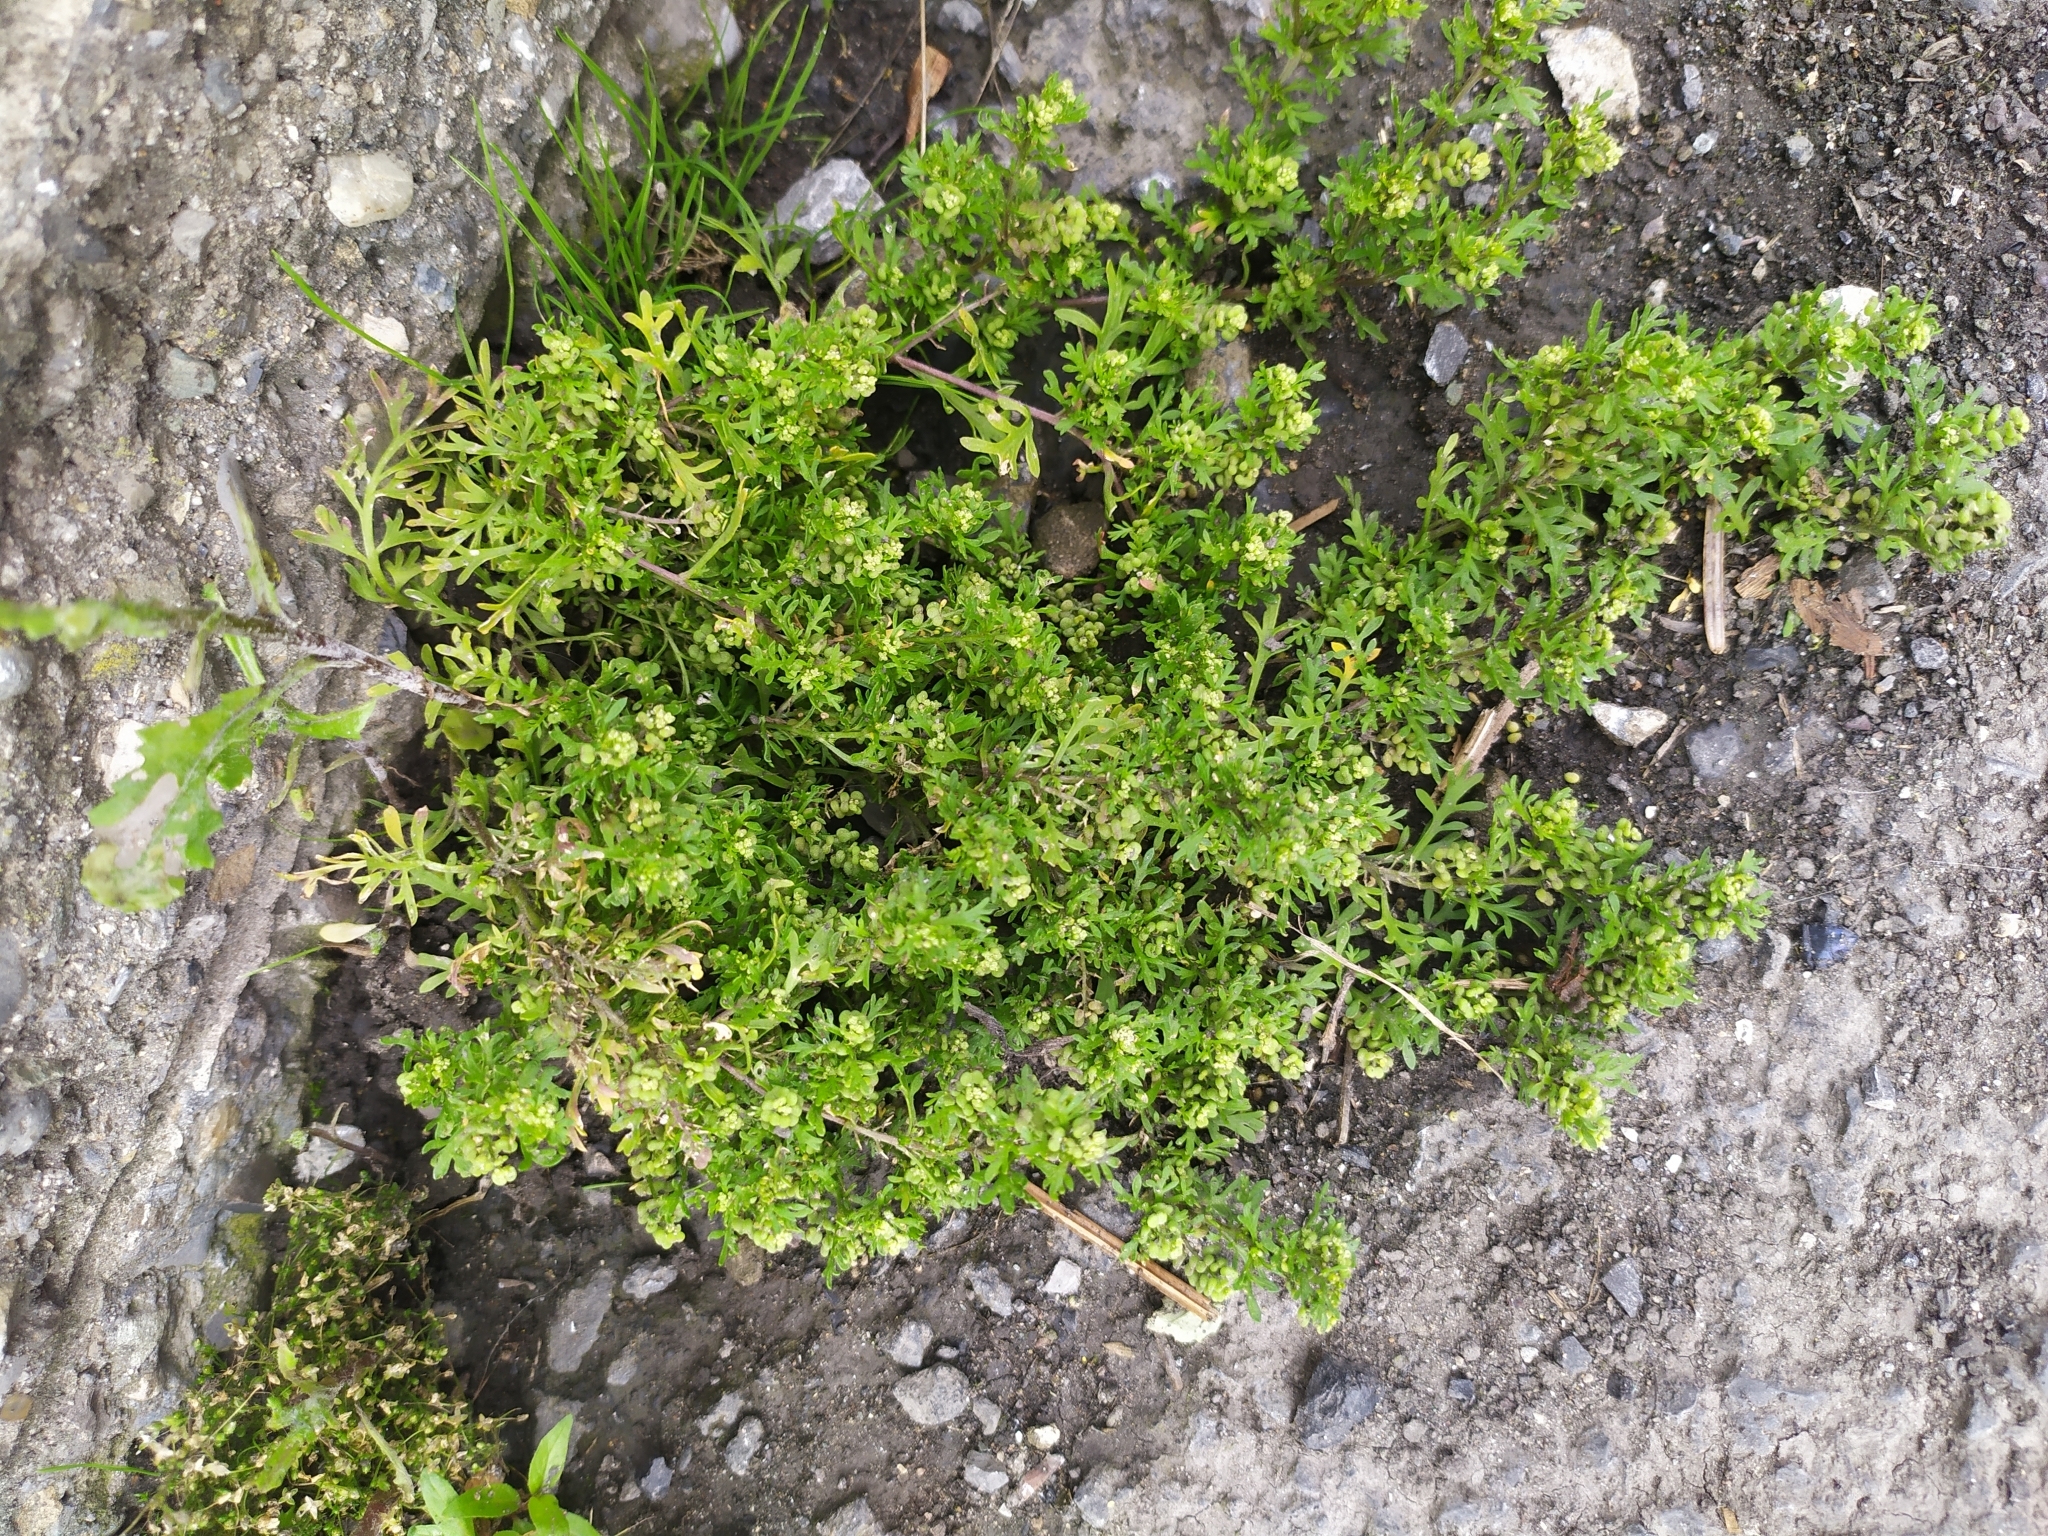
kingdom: Plantae
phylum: Tracheophyta
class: Magnoliopsida
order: Brassicales
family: Brassicaceae
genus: Lepidium
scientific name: Lepidium didymum
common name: Lesser swinecress
